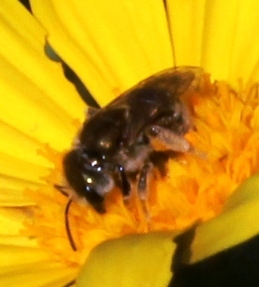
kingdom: Animalia
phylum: Arthropoda
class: Insecta
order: Hymenoptera
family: Halictidae
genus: Halictus
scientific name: Halictus jucundus
